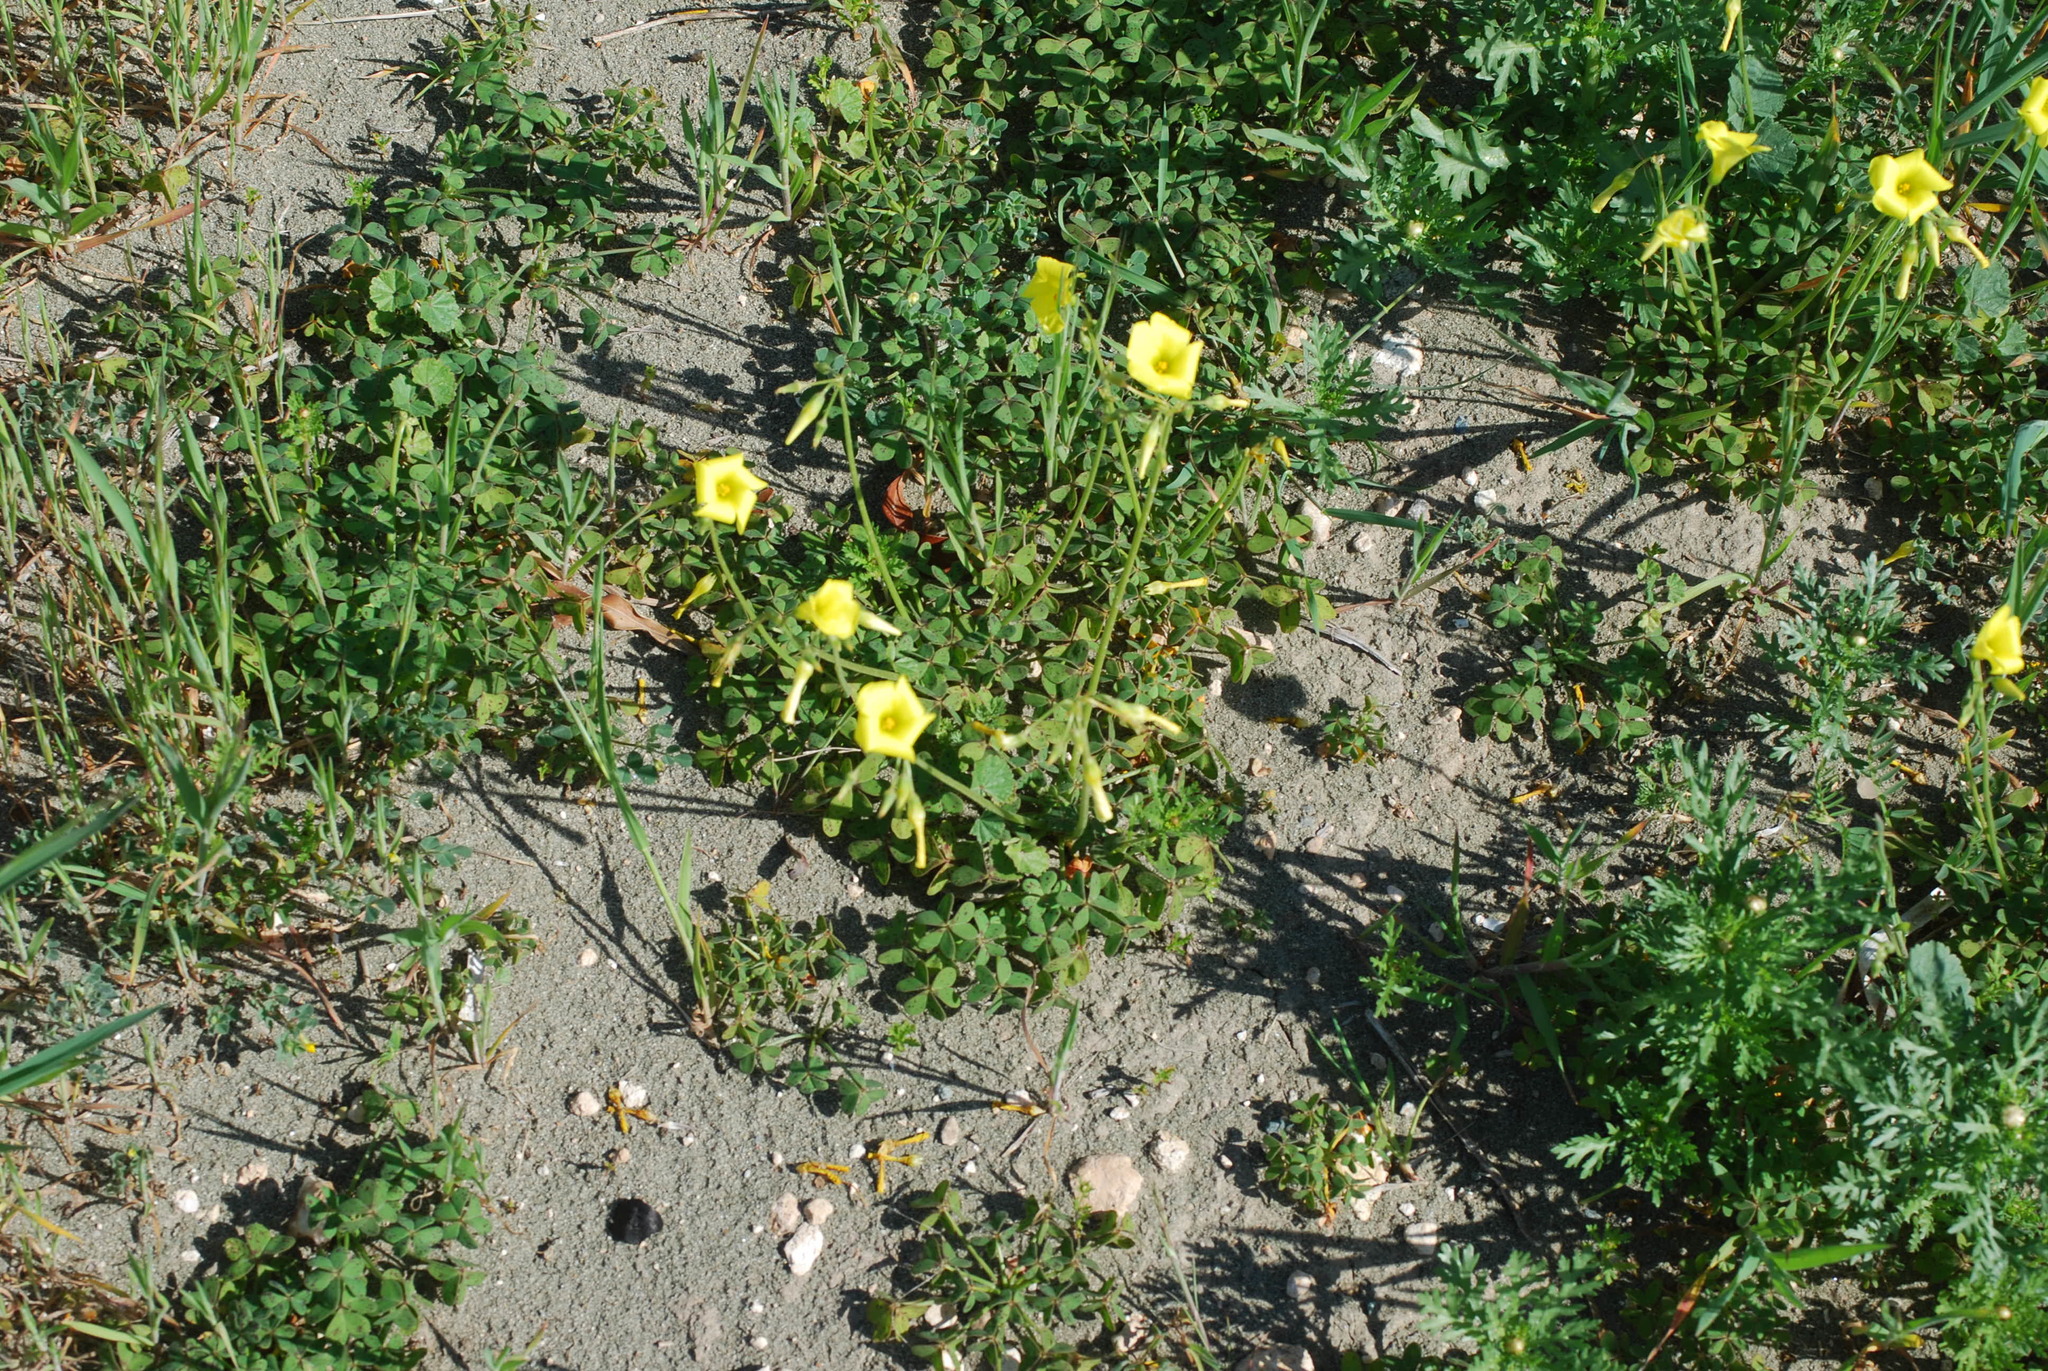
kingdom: Plantae
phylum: Tracheophyta
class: Magnoliopsida
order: Oxalidales
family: Oxalidaceae
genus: Oxalis
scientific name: Oxalis pes-caprae
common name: Bermuda-buttercup
